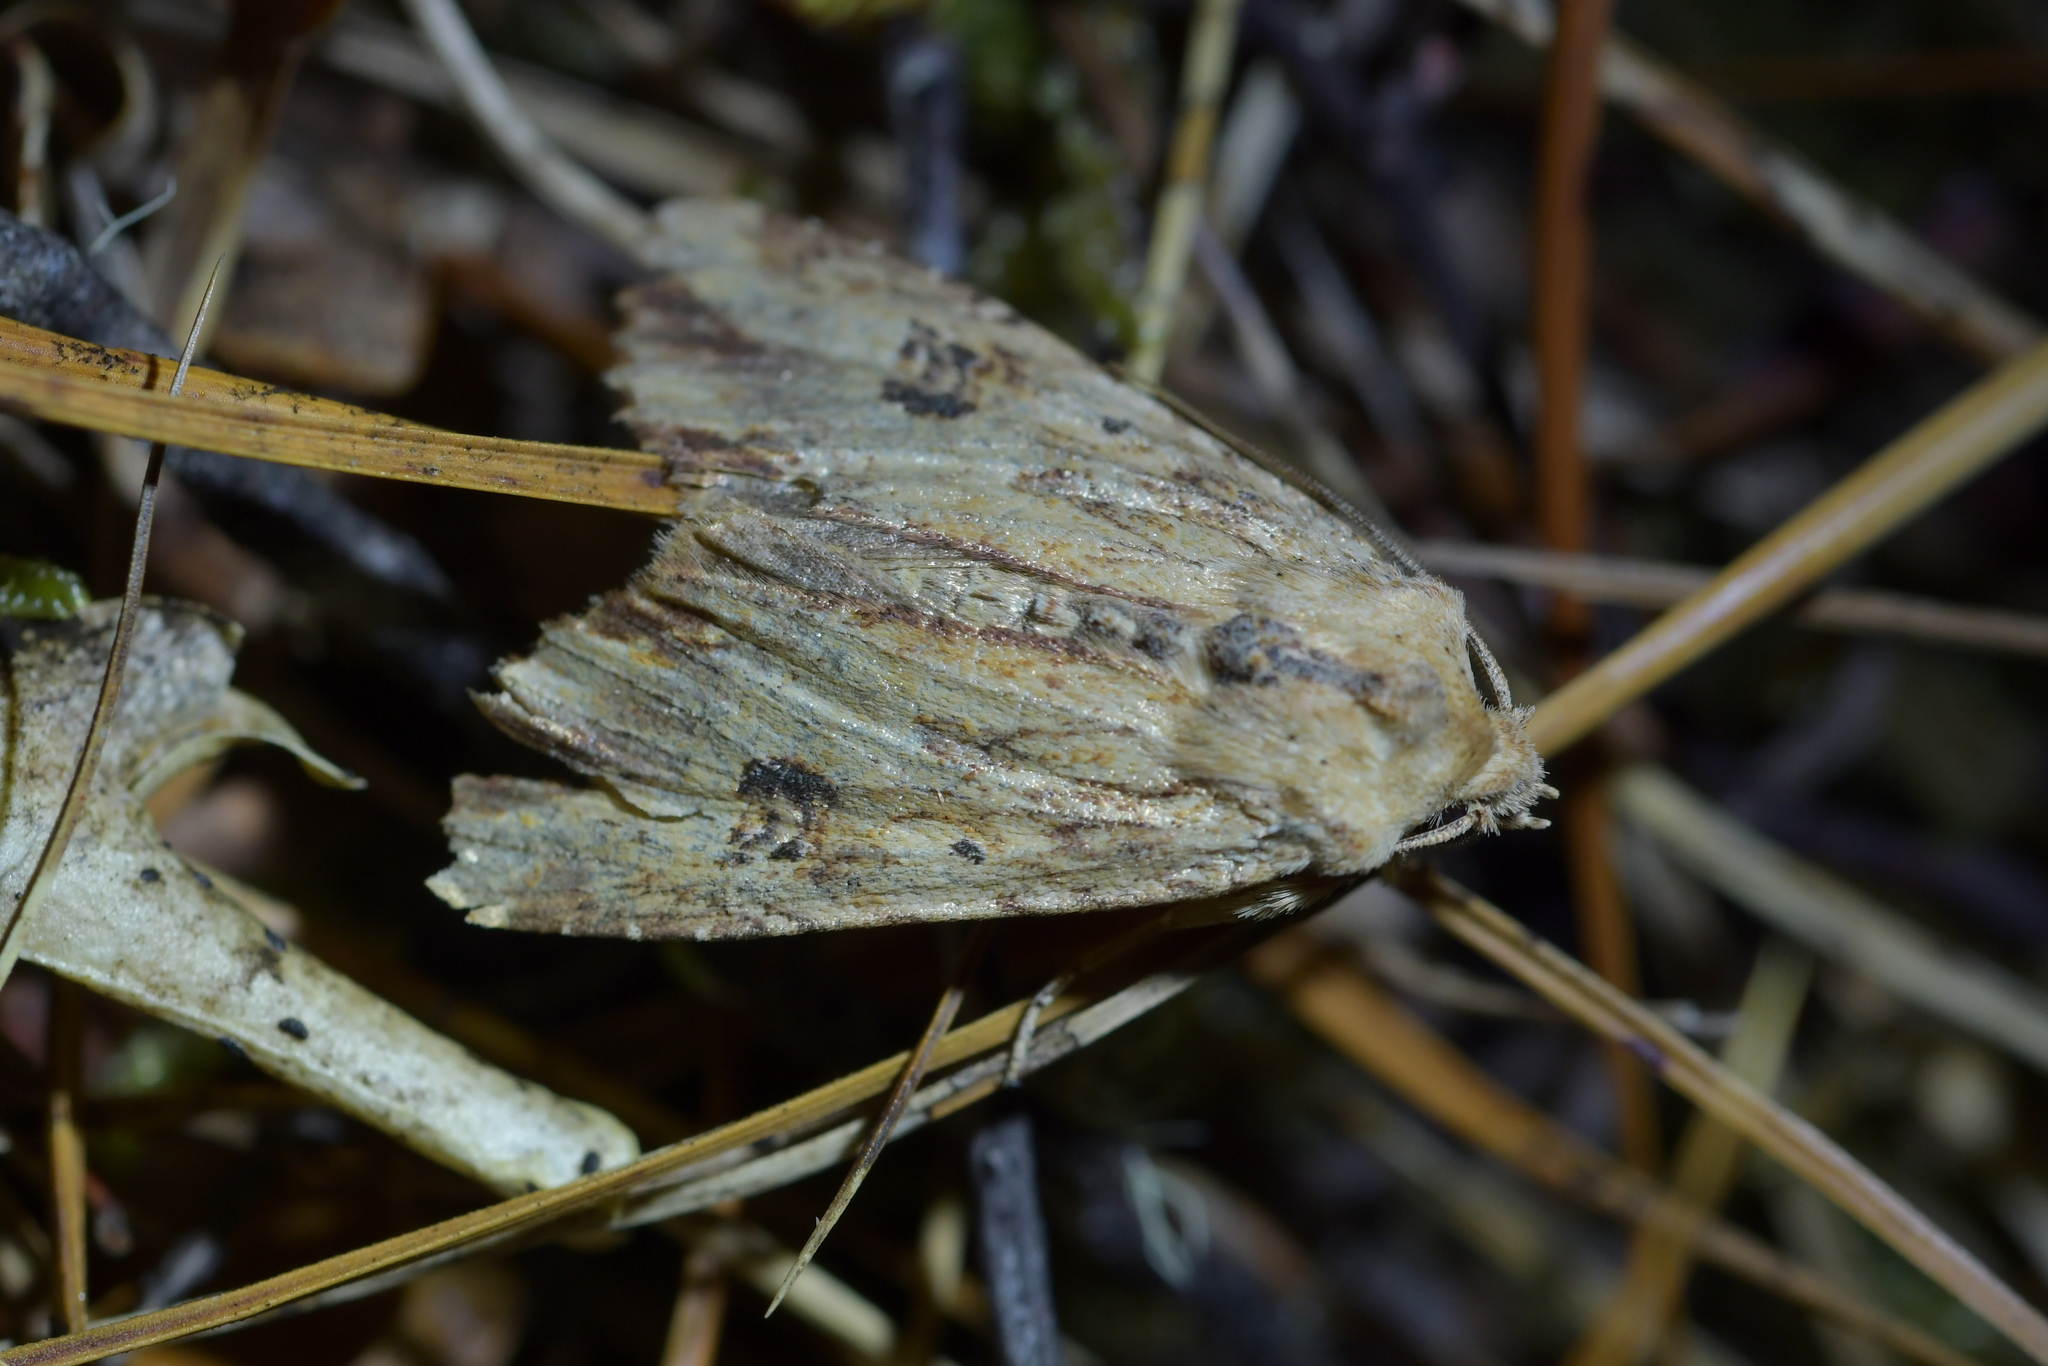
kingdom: Animalia
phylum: Arthropoda
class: Insecta
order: Lepidoptera
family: Noctuidae
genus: Ichneutica
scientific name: Ichneutica
